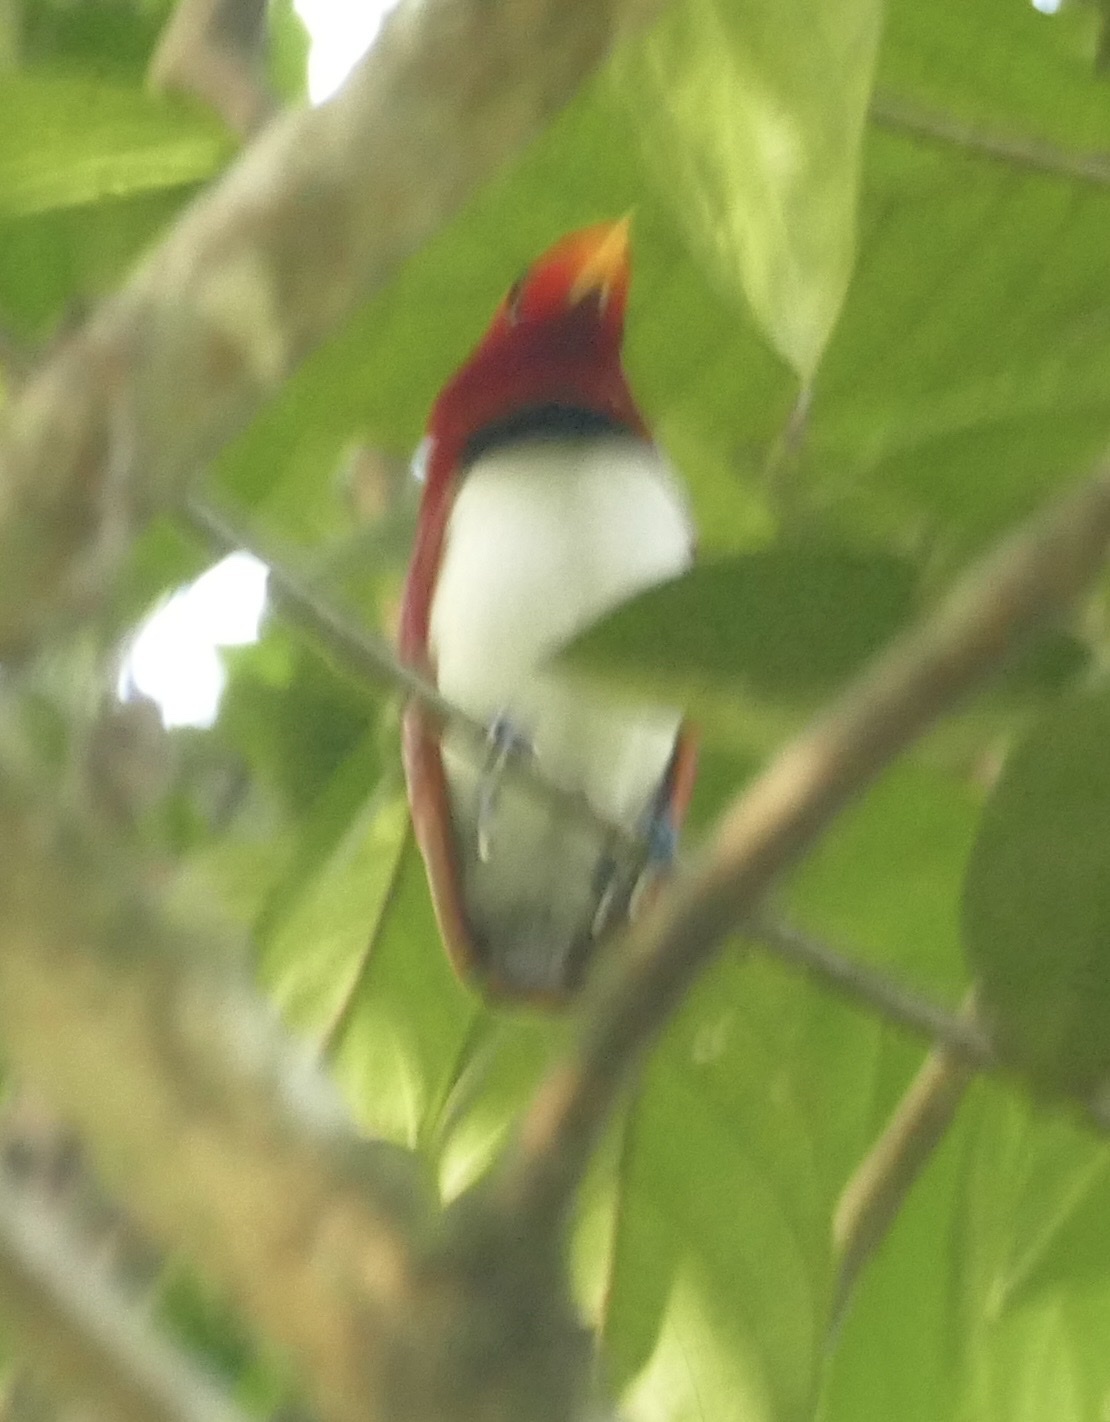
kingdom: Animalia
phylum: Chordata
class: Aves
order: Passeriformes
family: Paradisaeidae
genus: Cicinnurus
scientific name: Cicinnurus regius
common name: King bird-of-paradise
